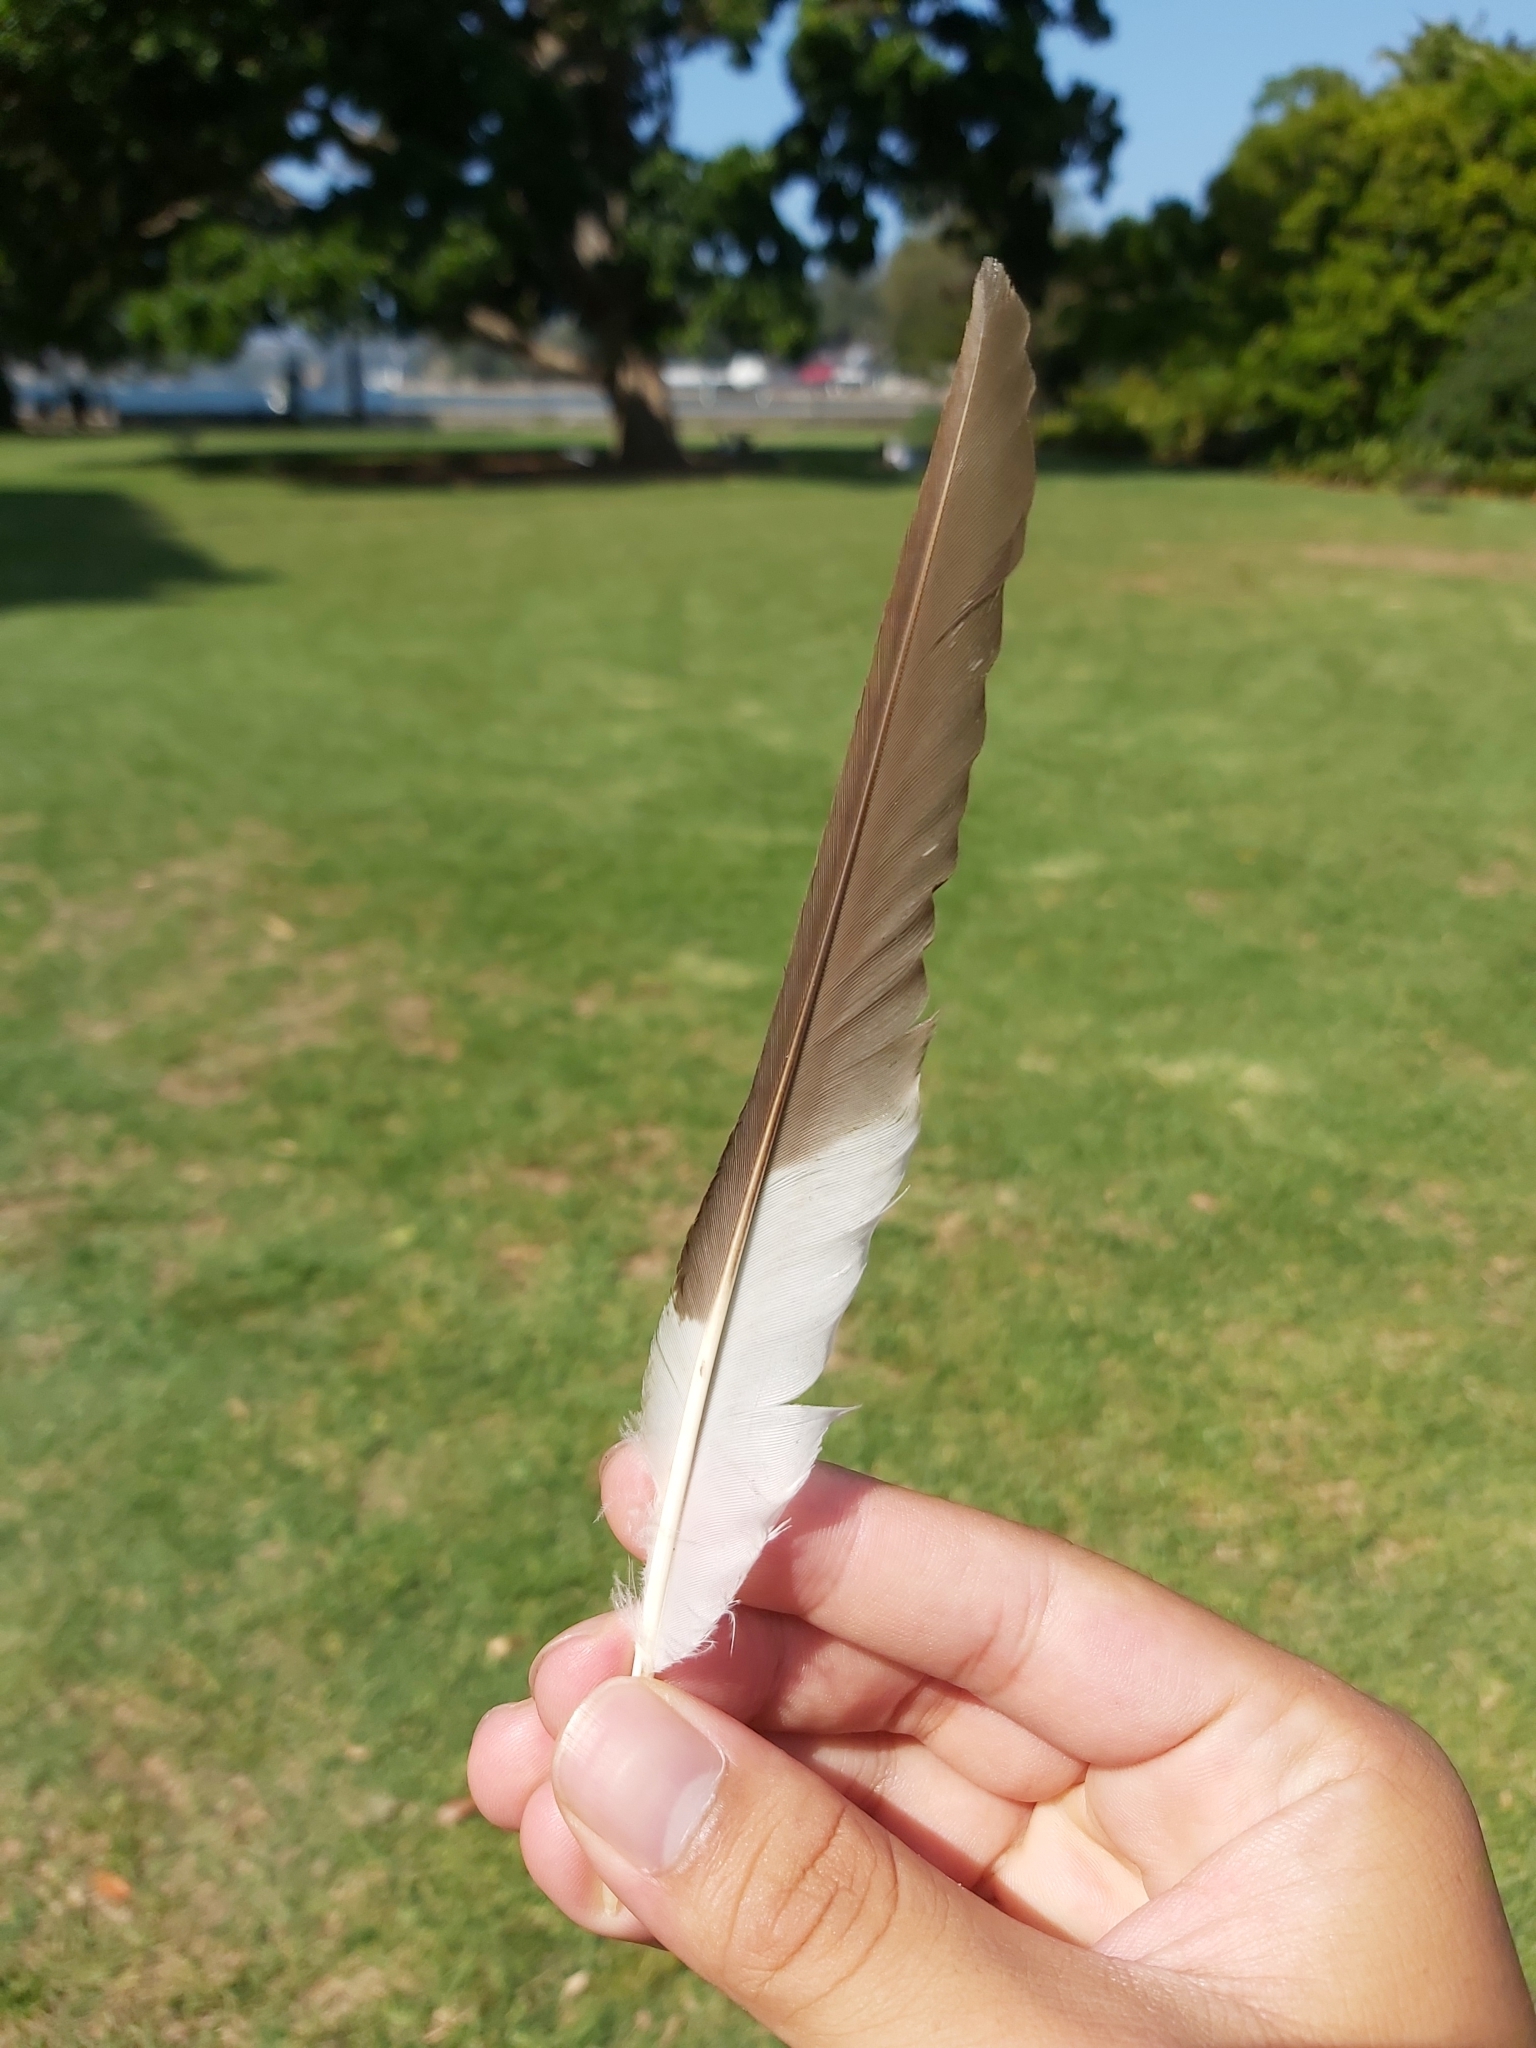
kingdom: Animalia
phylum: Chordata
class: Aves
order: Coraciiformes
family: Alcedinidae
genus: Dacelo
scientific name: Dacelo novaeguineae
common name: Laughing kookaburra
